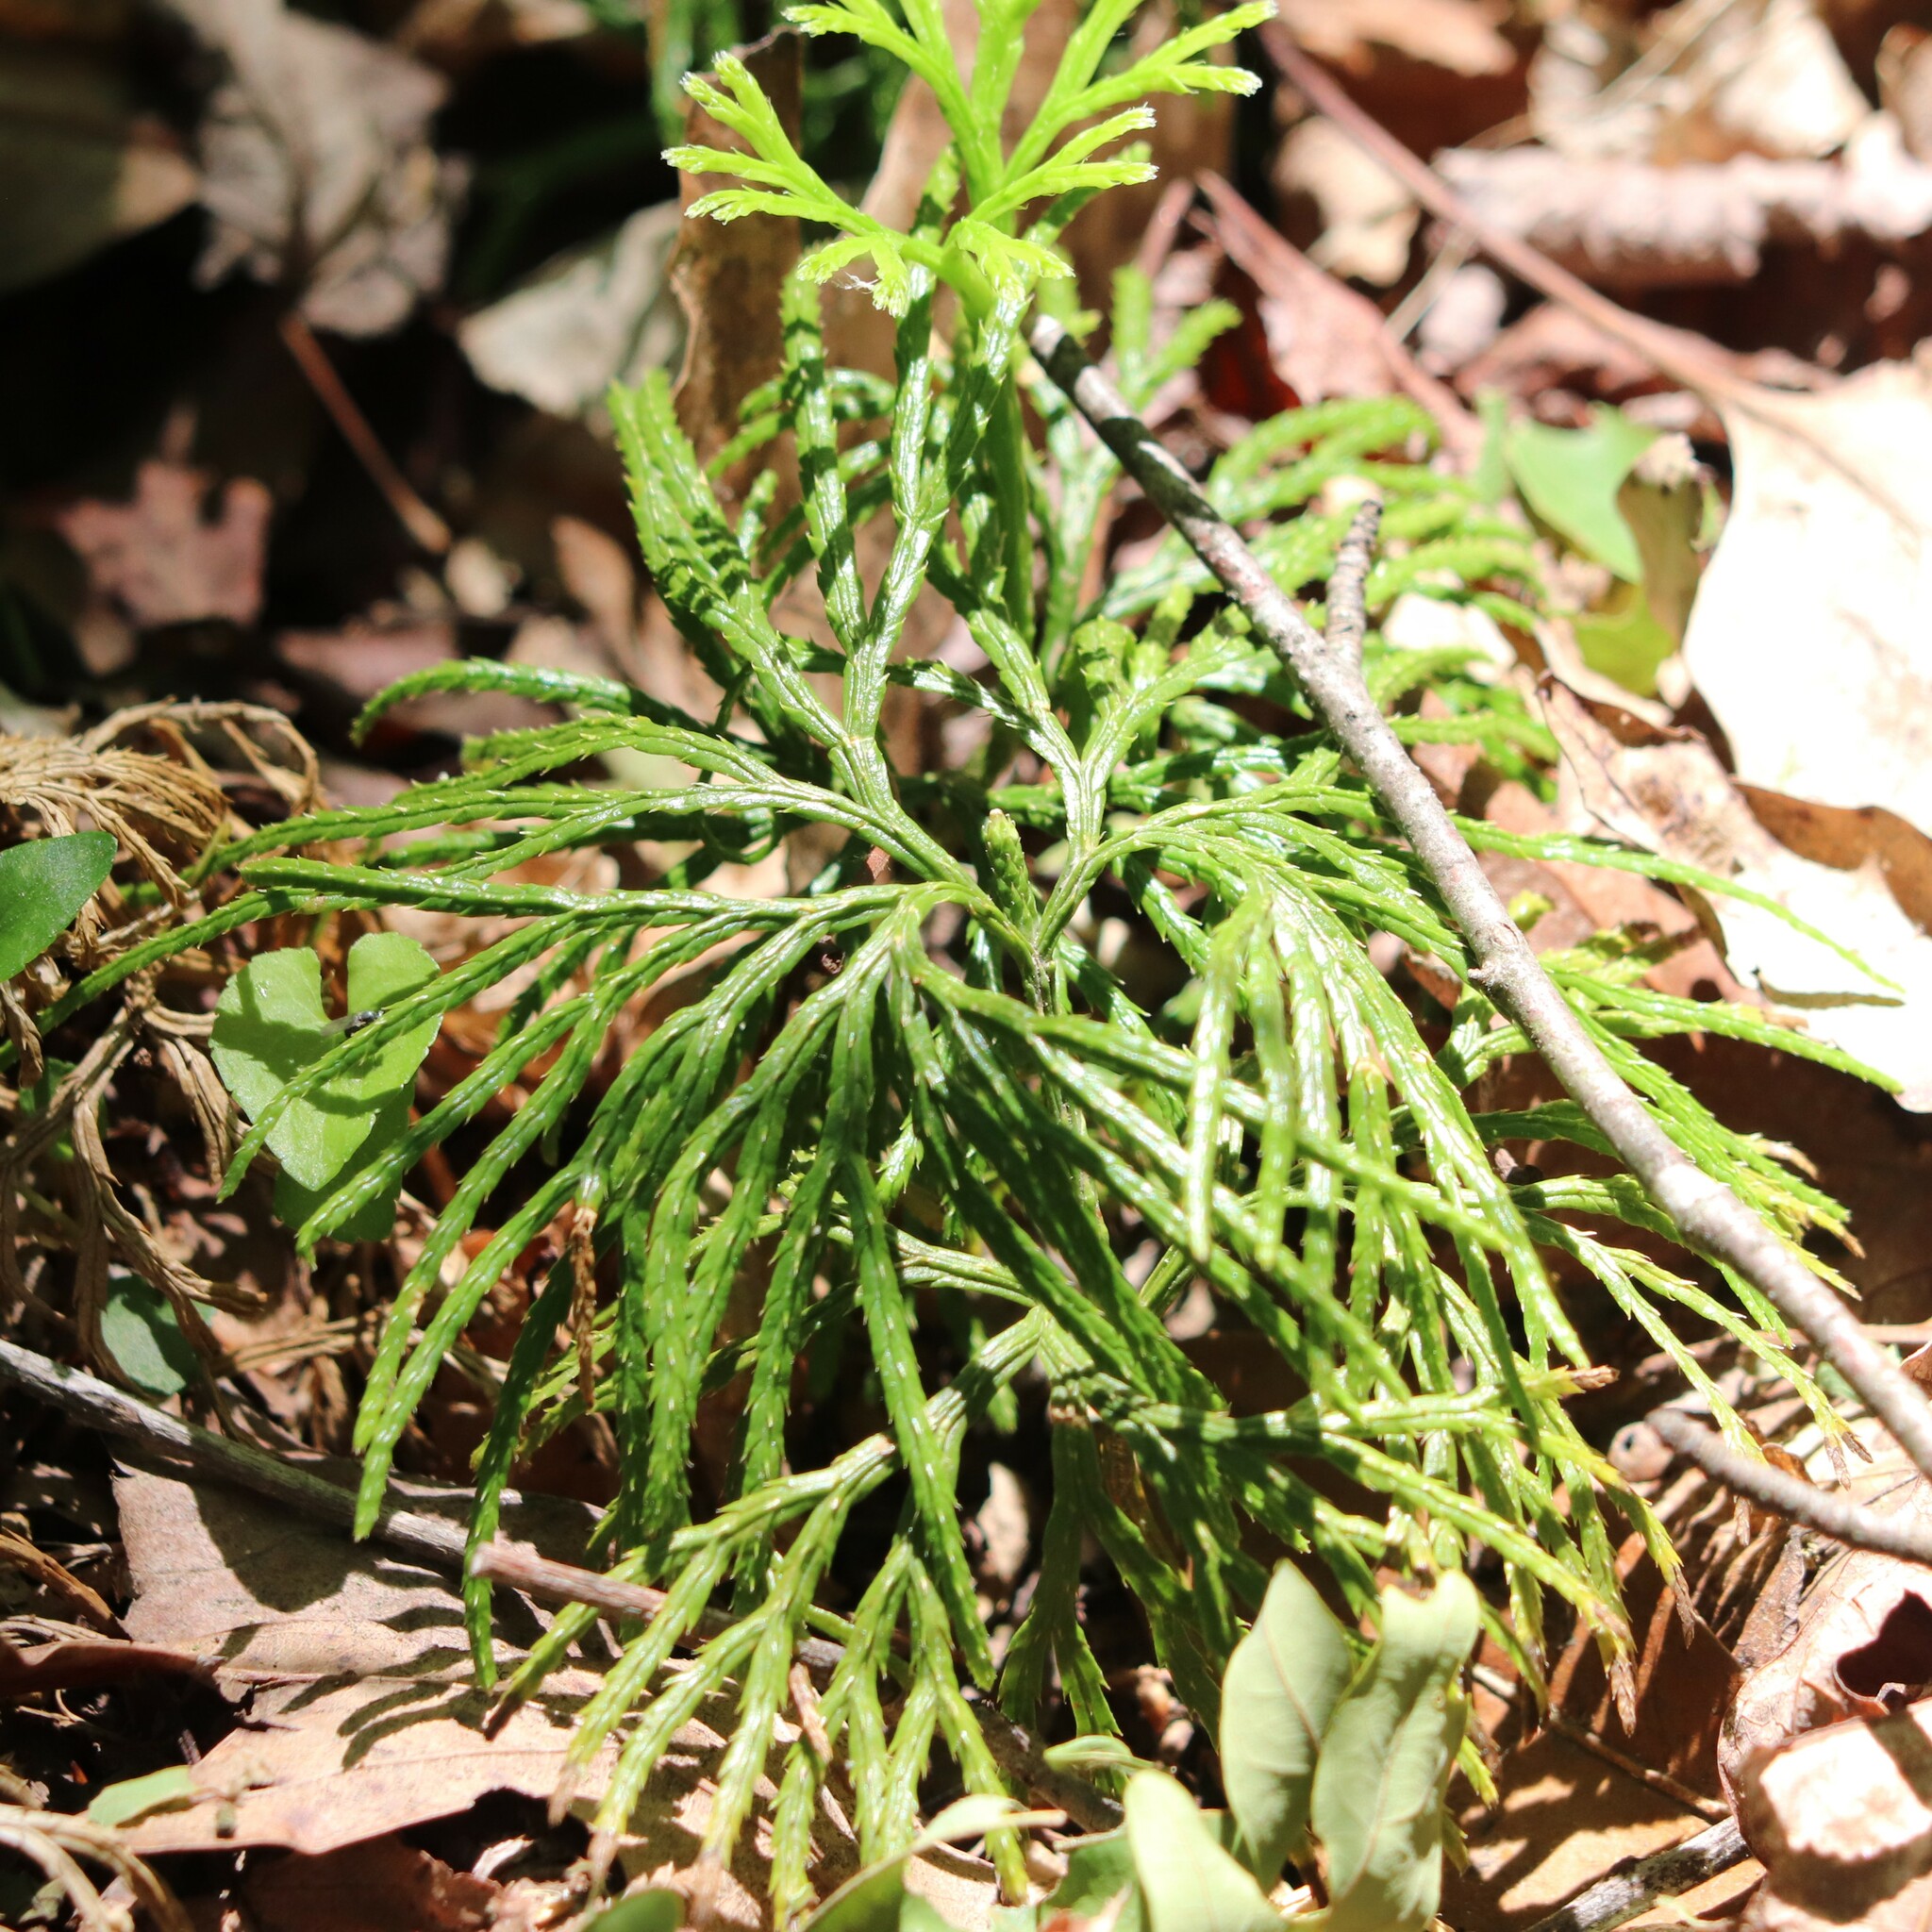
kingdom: Plantae
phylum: Tracheophyta
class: Lycopodiopsida
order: Lycopodiales
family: Lycopodiaceae
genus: Diphasiastrum
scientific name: Diphasiastrum digitatum
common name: Southern running-pine
